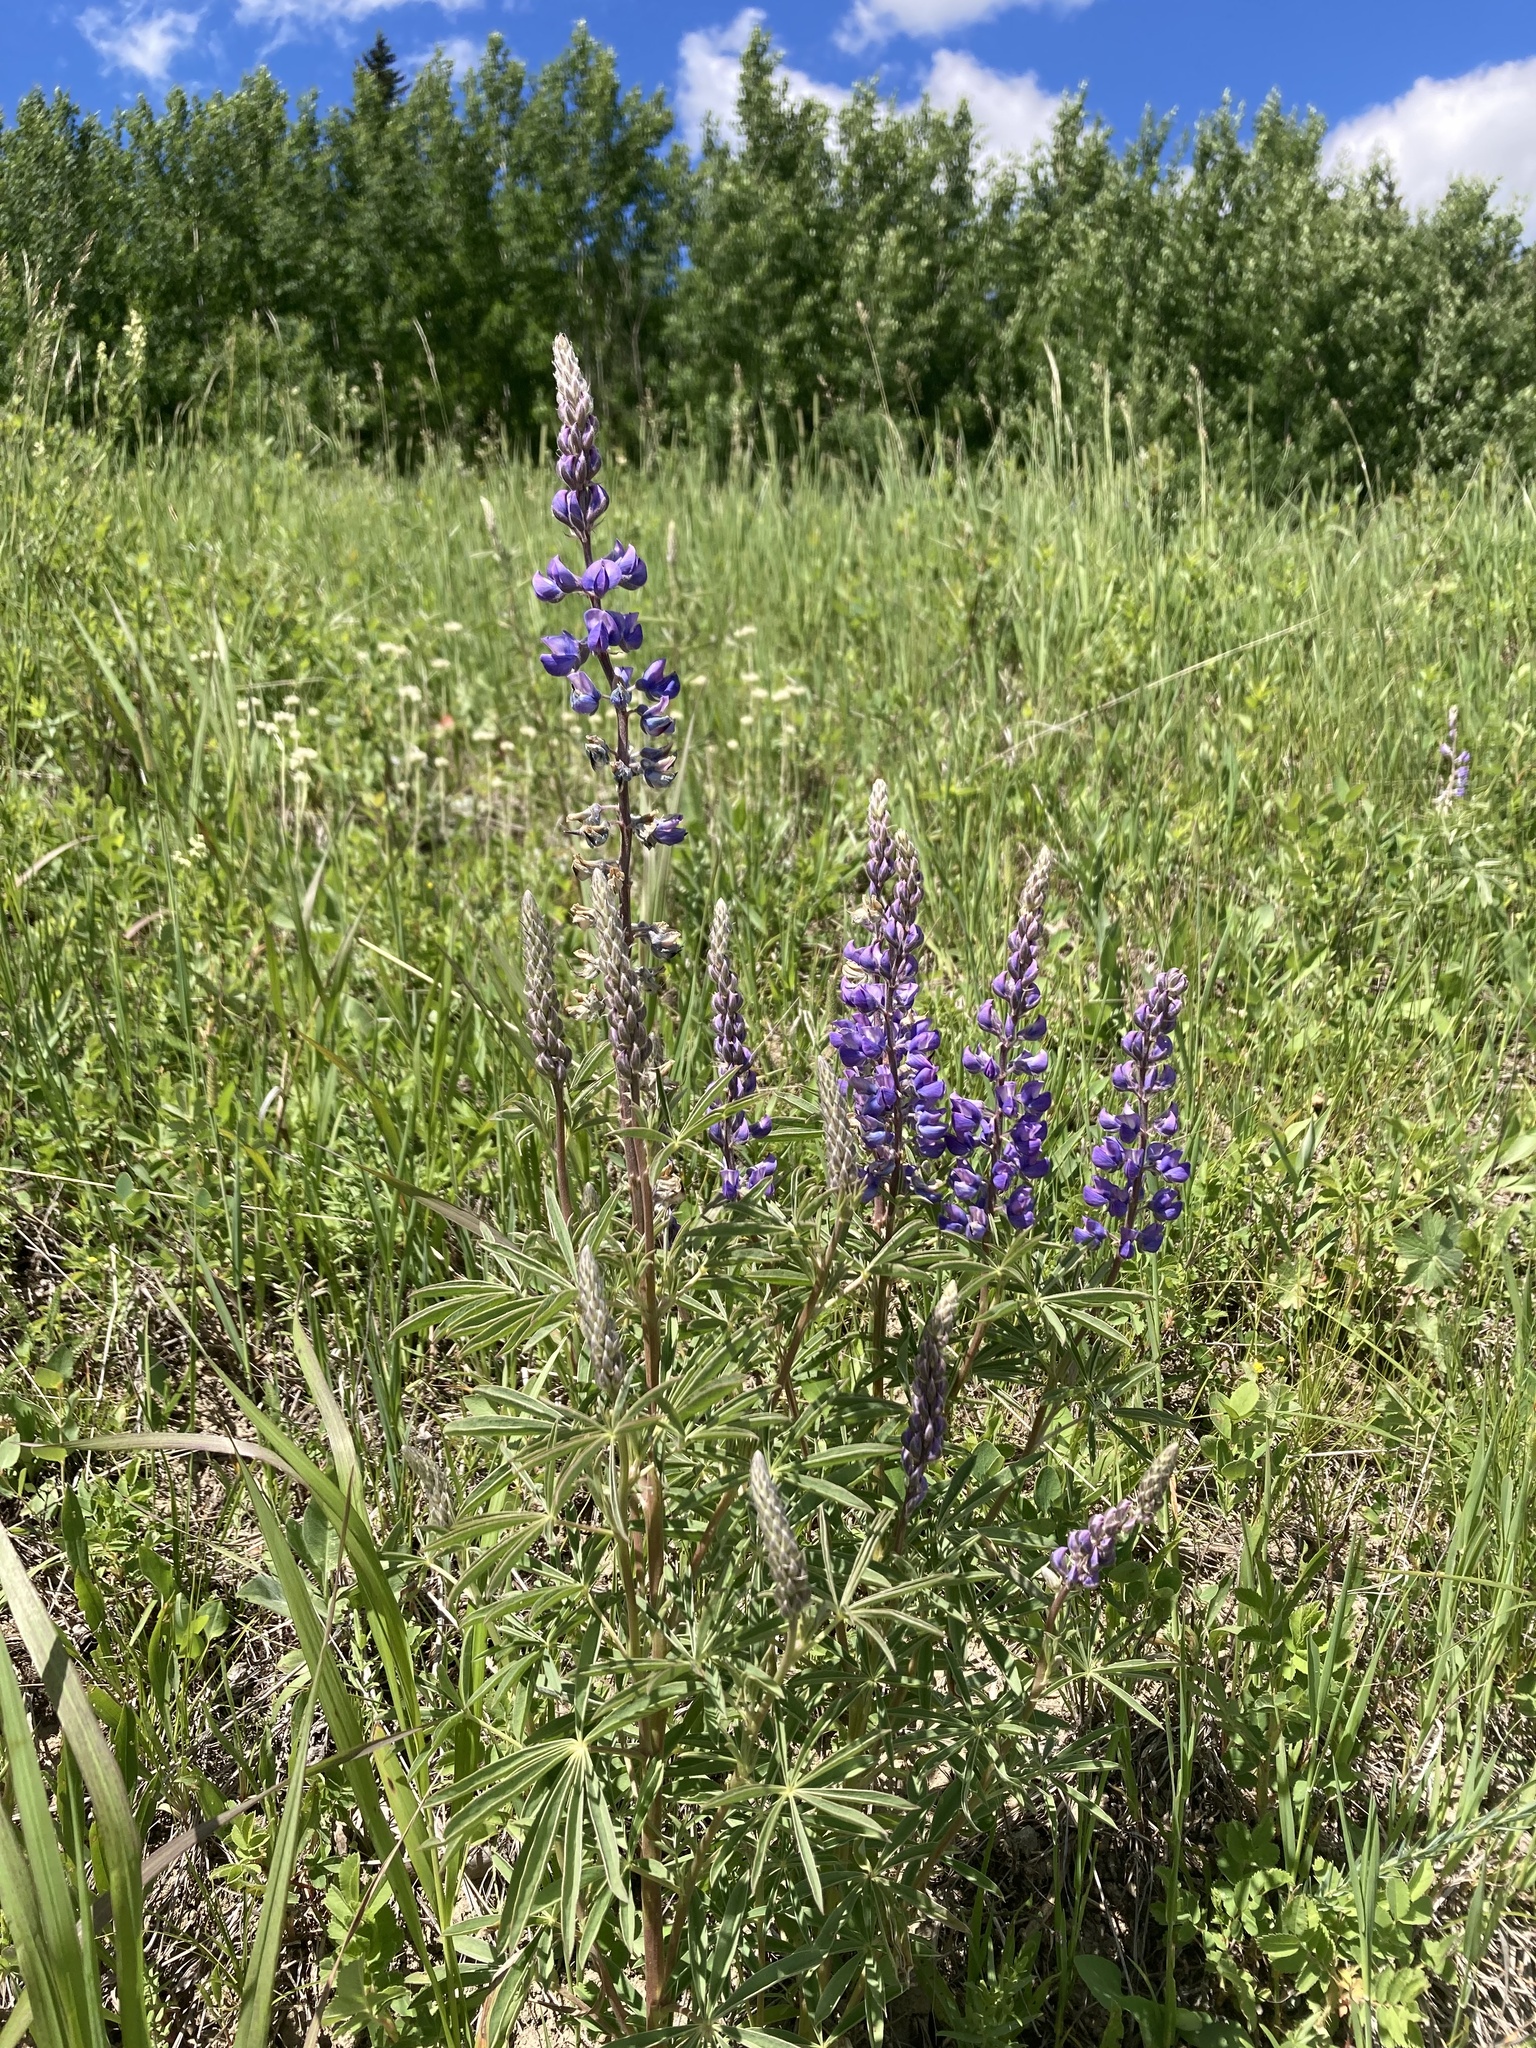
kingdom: Plantae
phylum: Tracheophyta
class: Magnoliopsida
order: Fabales
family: Fabaceae
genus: Lupinus
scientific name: Lupinus argenteus
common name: Silvery lupine
